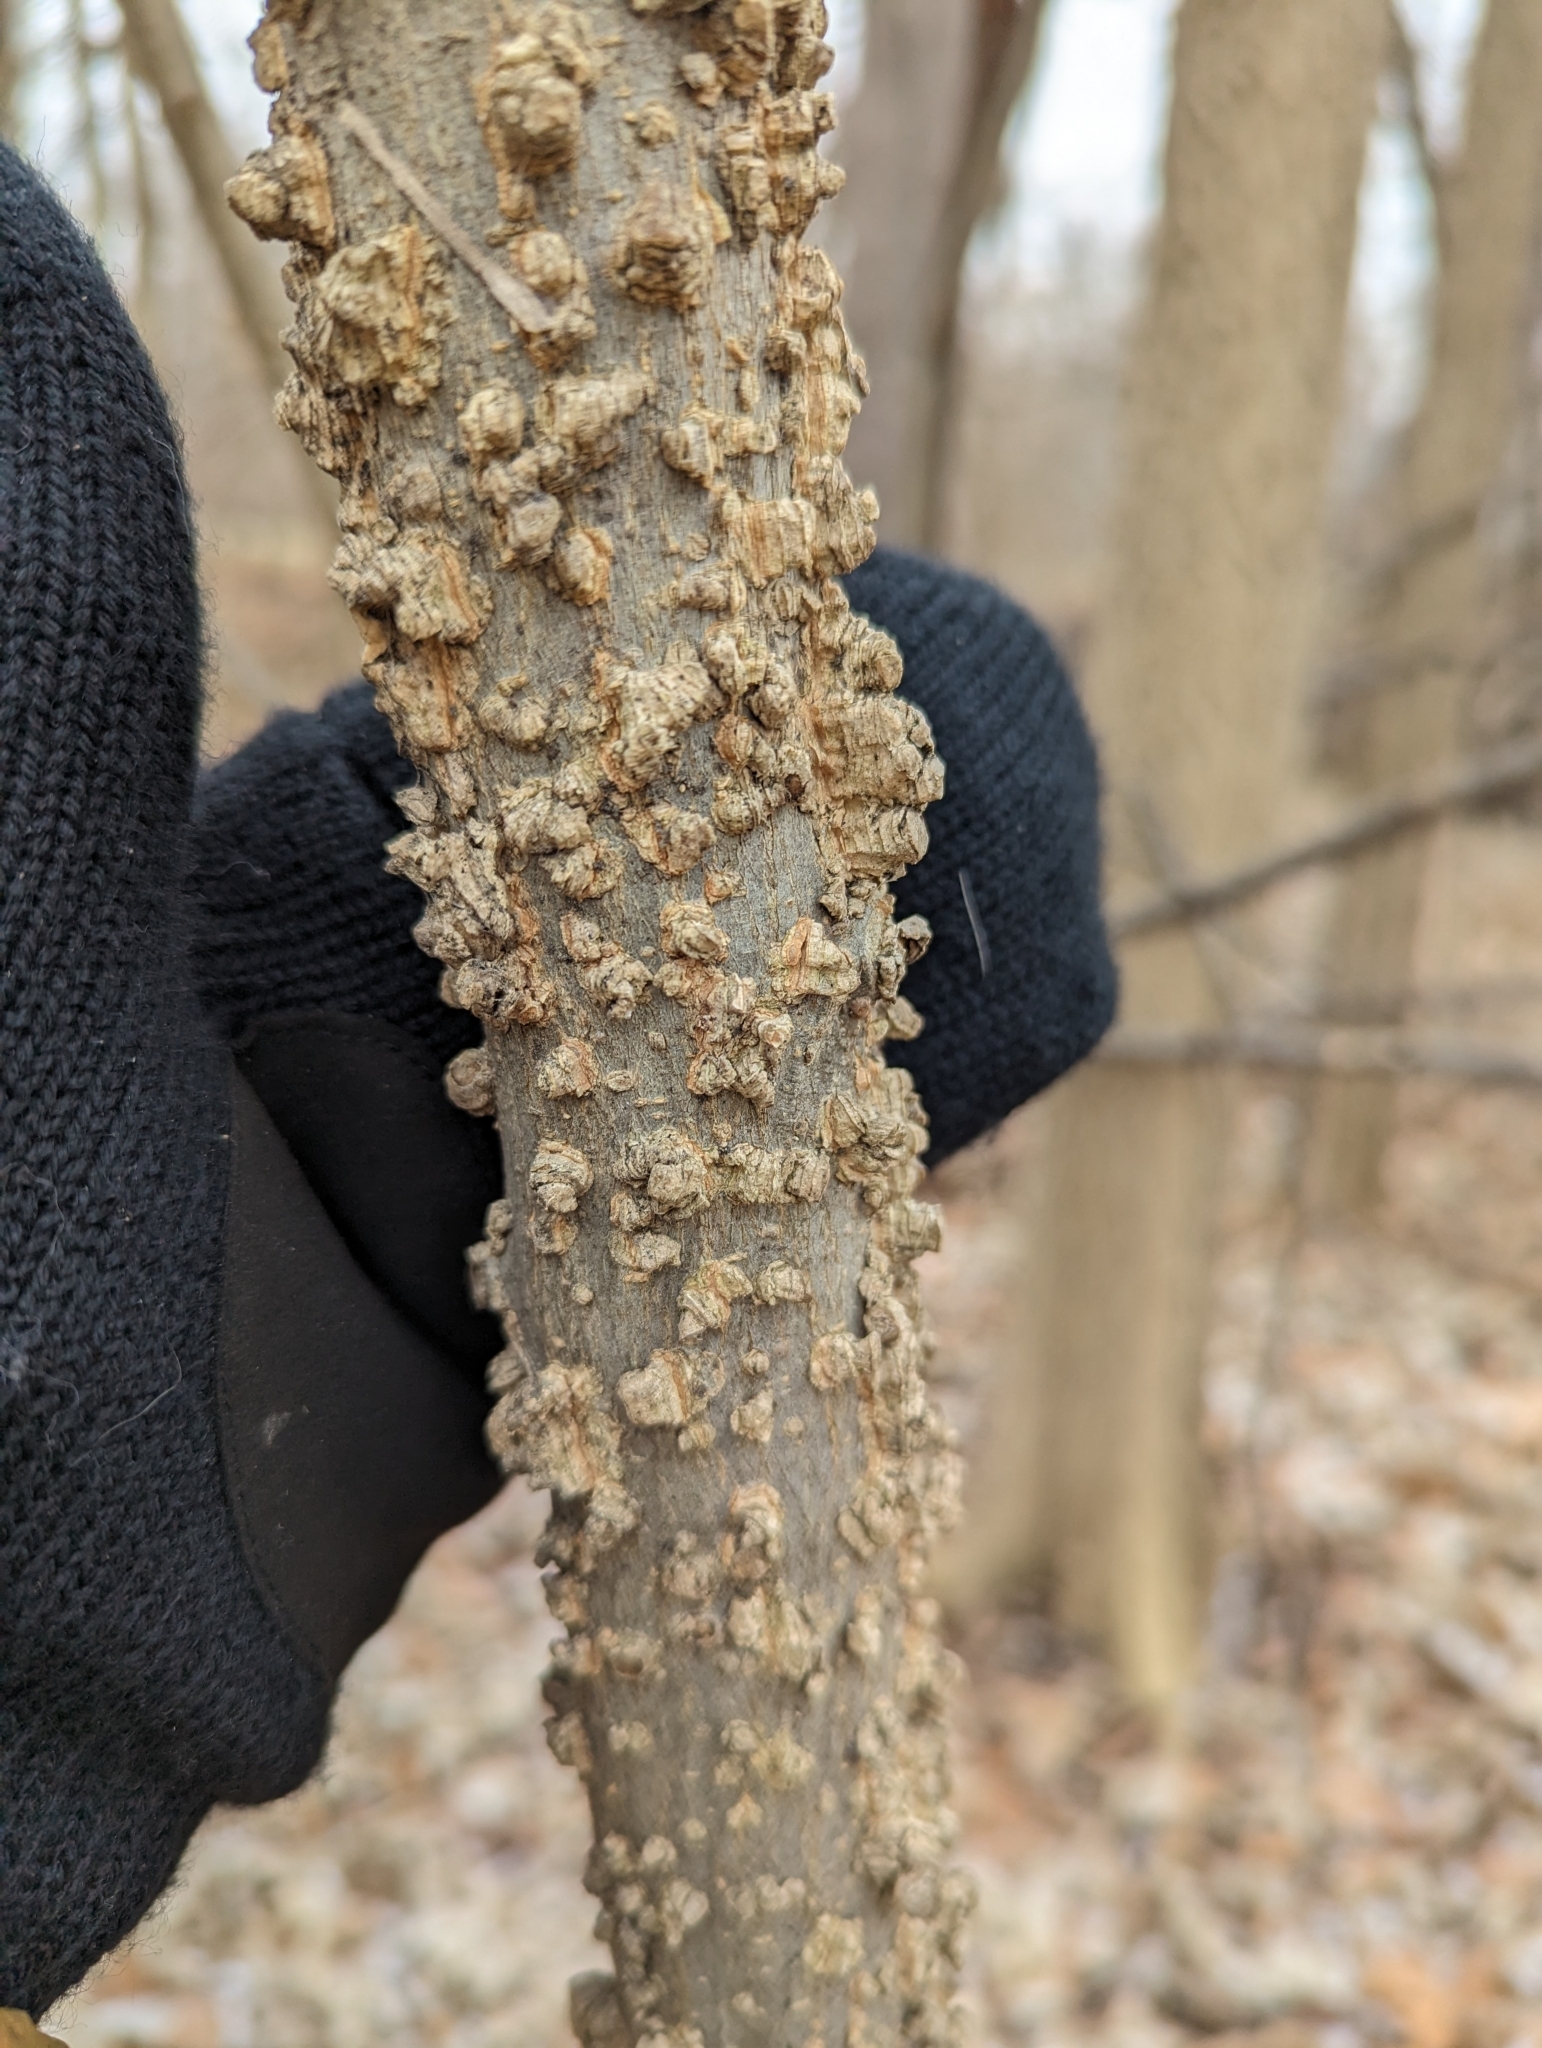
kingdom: Plantae
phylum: Tracheophyta
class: Magnoliopsida
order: Rosales
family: Cannabaceae
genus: Celtis
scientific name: Celtis occidentalis
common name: Common hackberry
